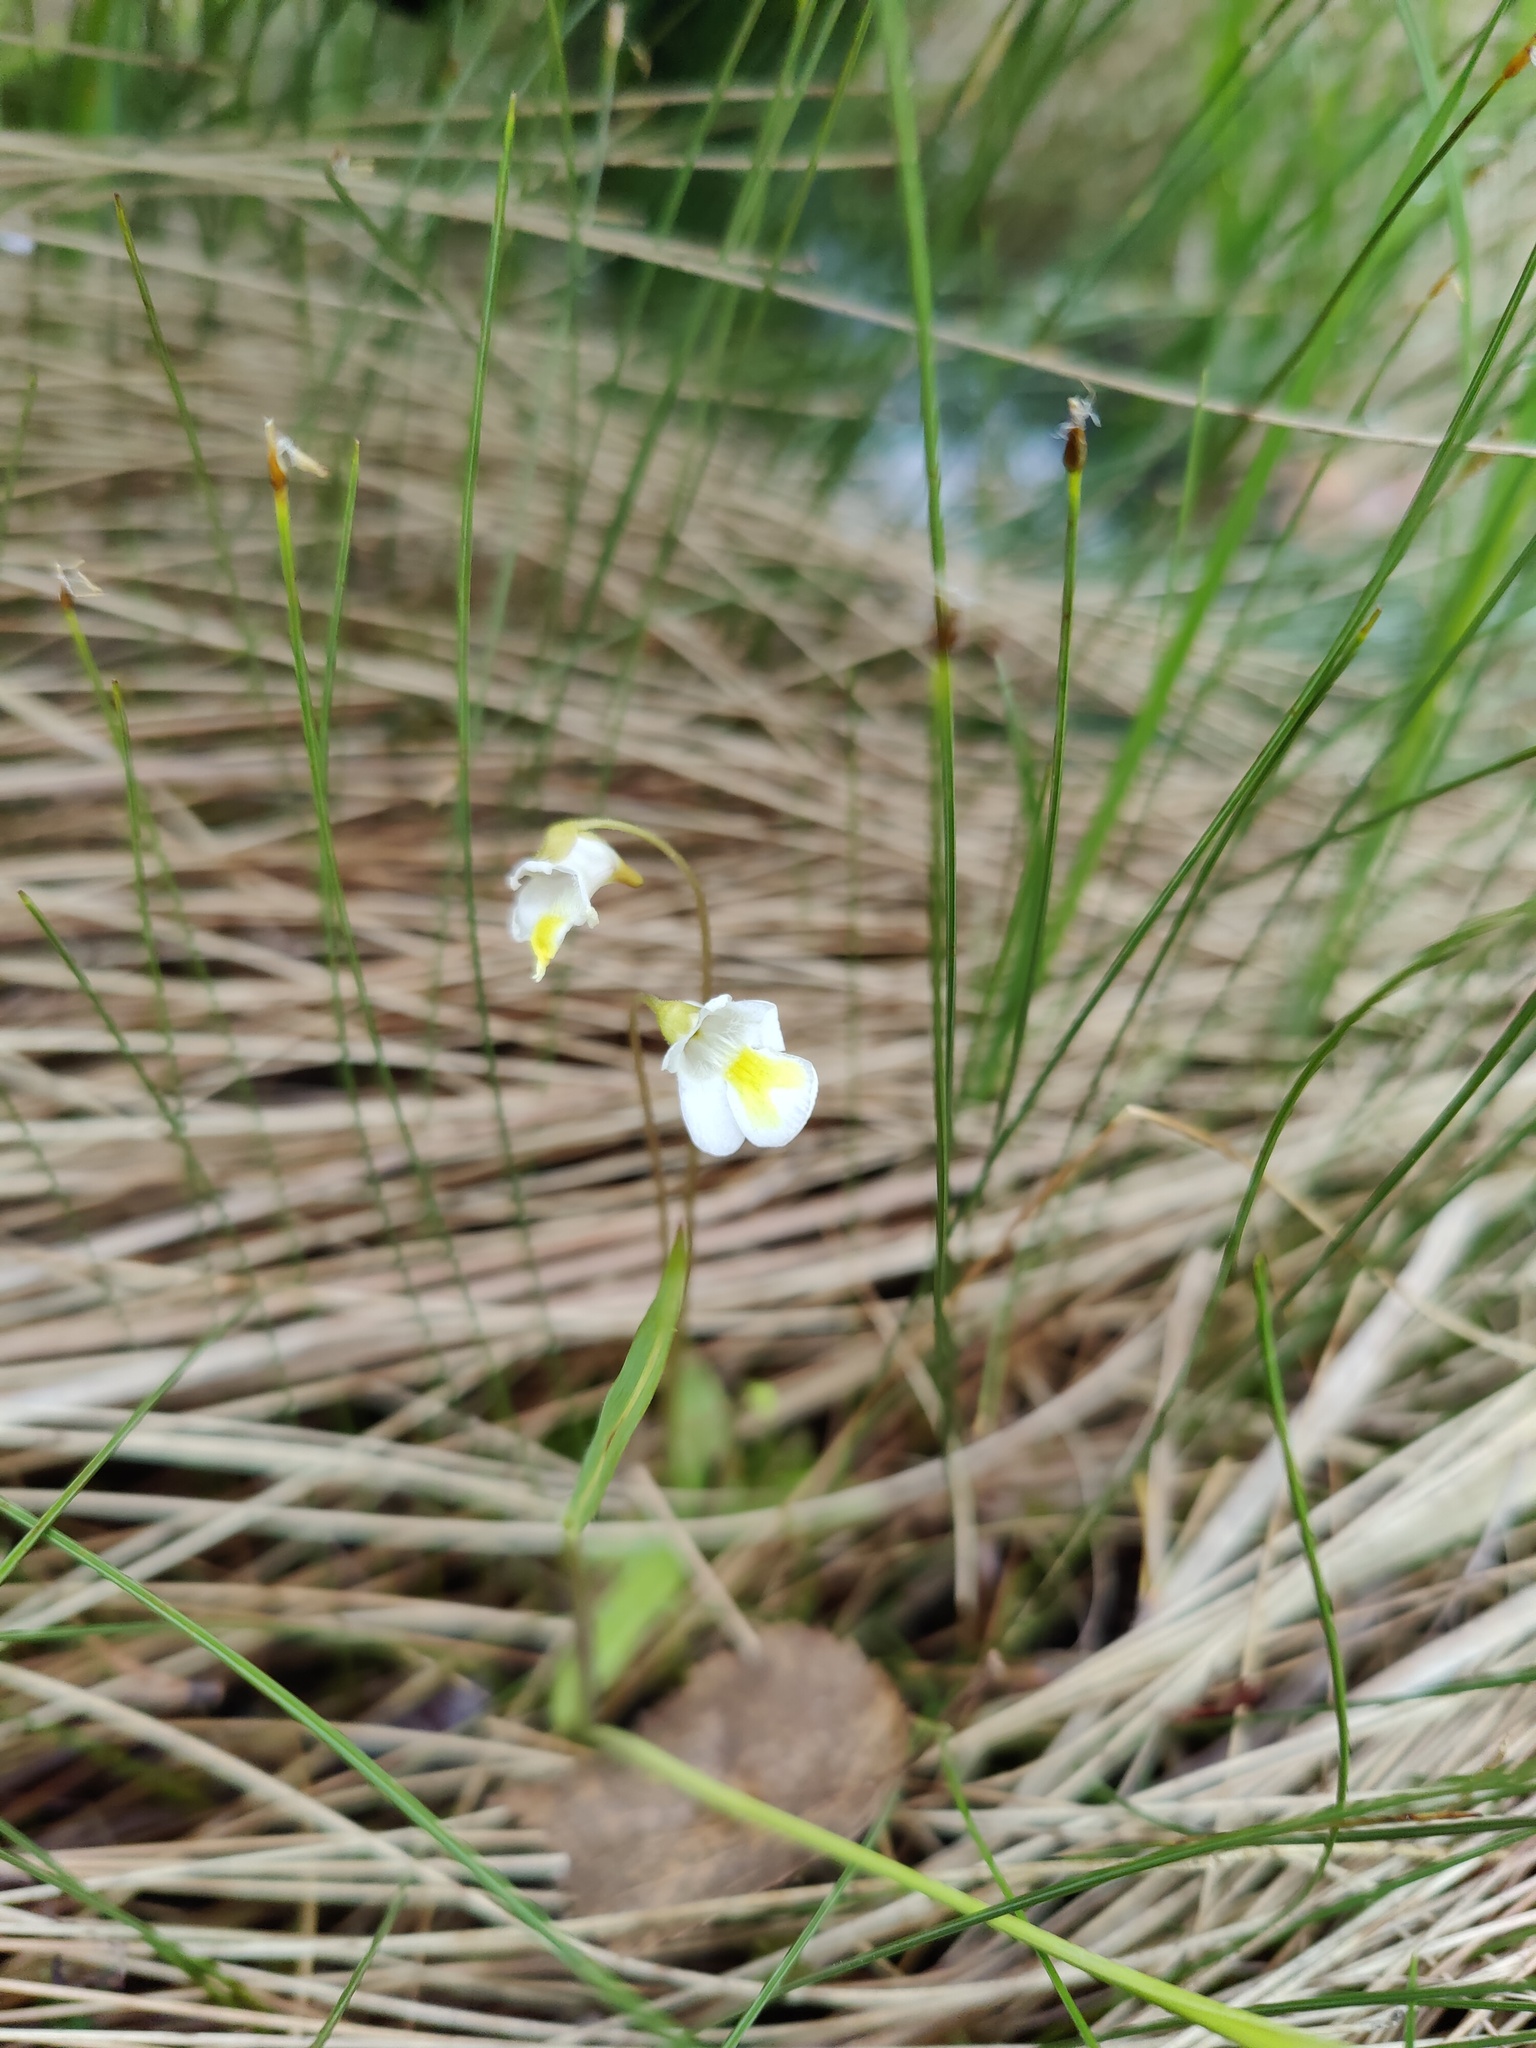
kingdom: Plantae
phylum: Tracheophyta
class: Magnoliopsida
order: Lamiales
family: Lentibulariaceae
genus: Pinguicula
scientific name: Pinguicula alpina
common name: Alpine butterwort
